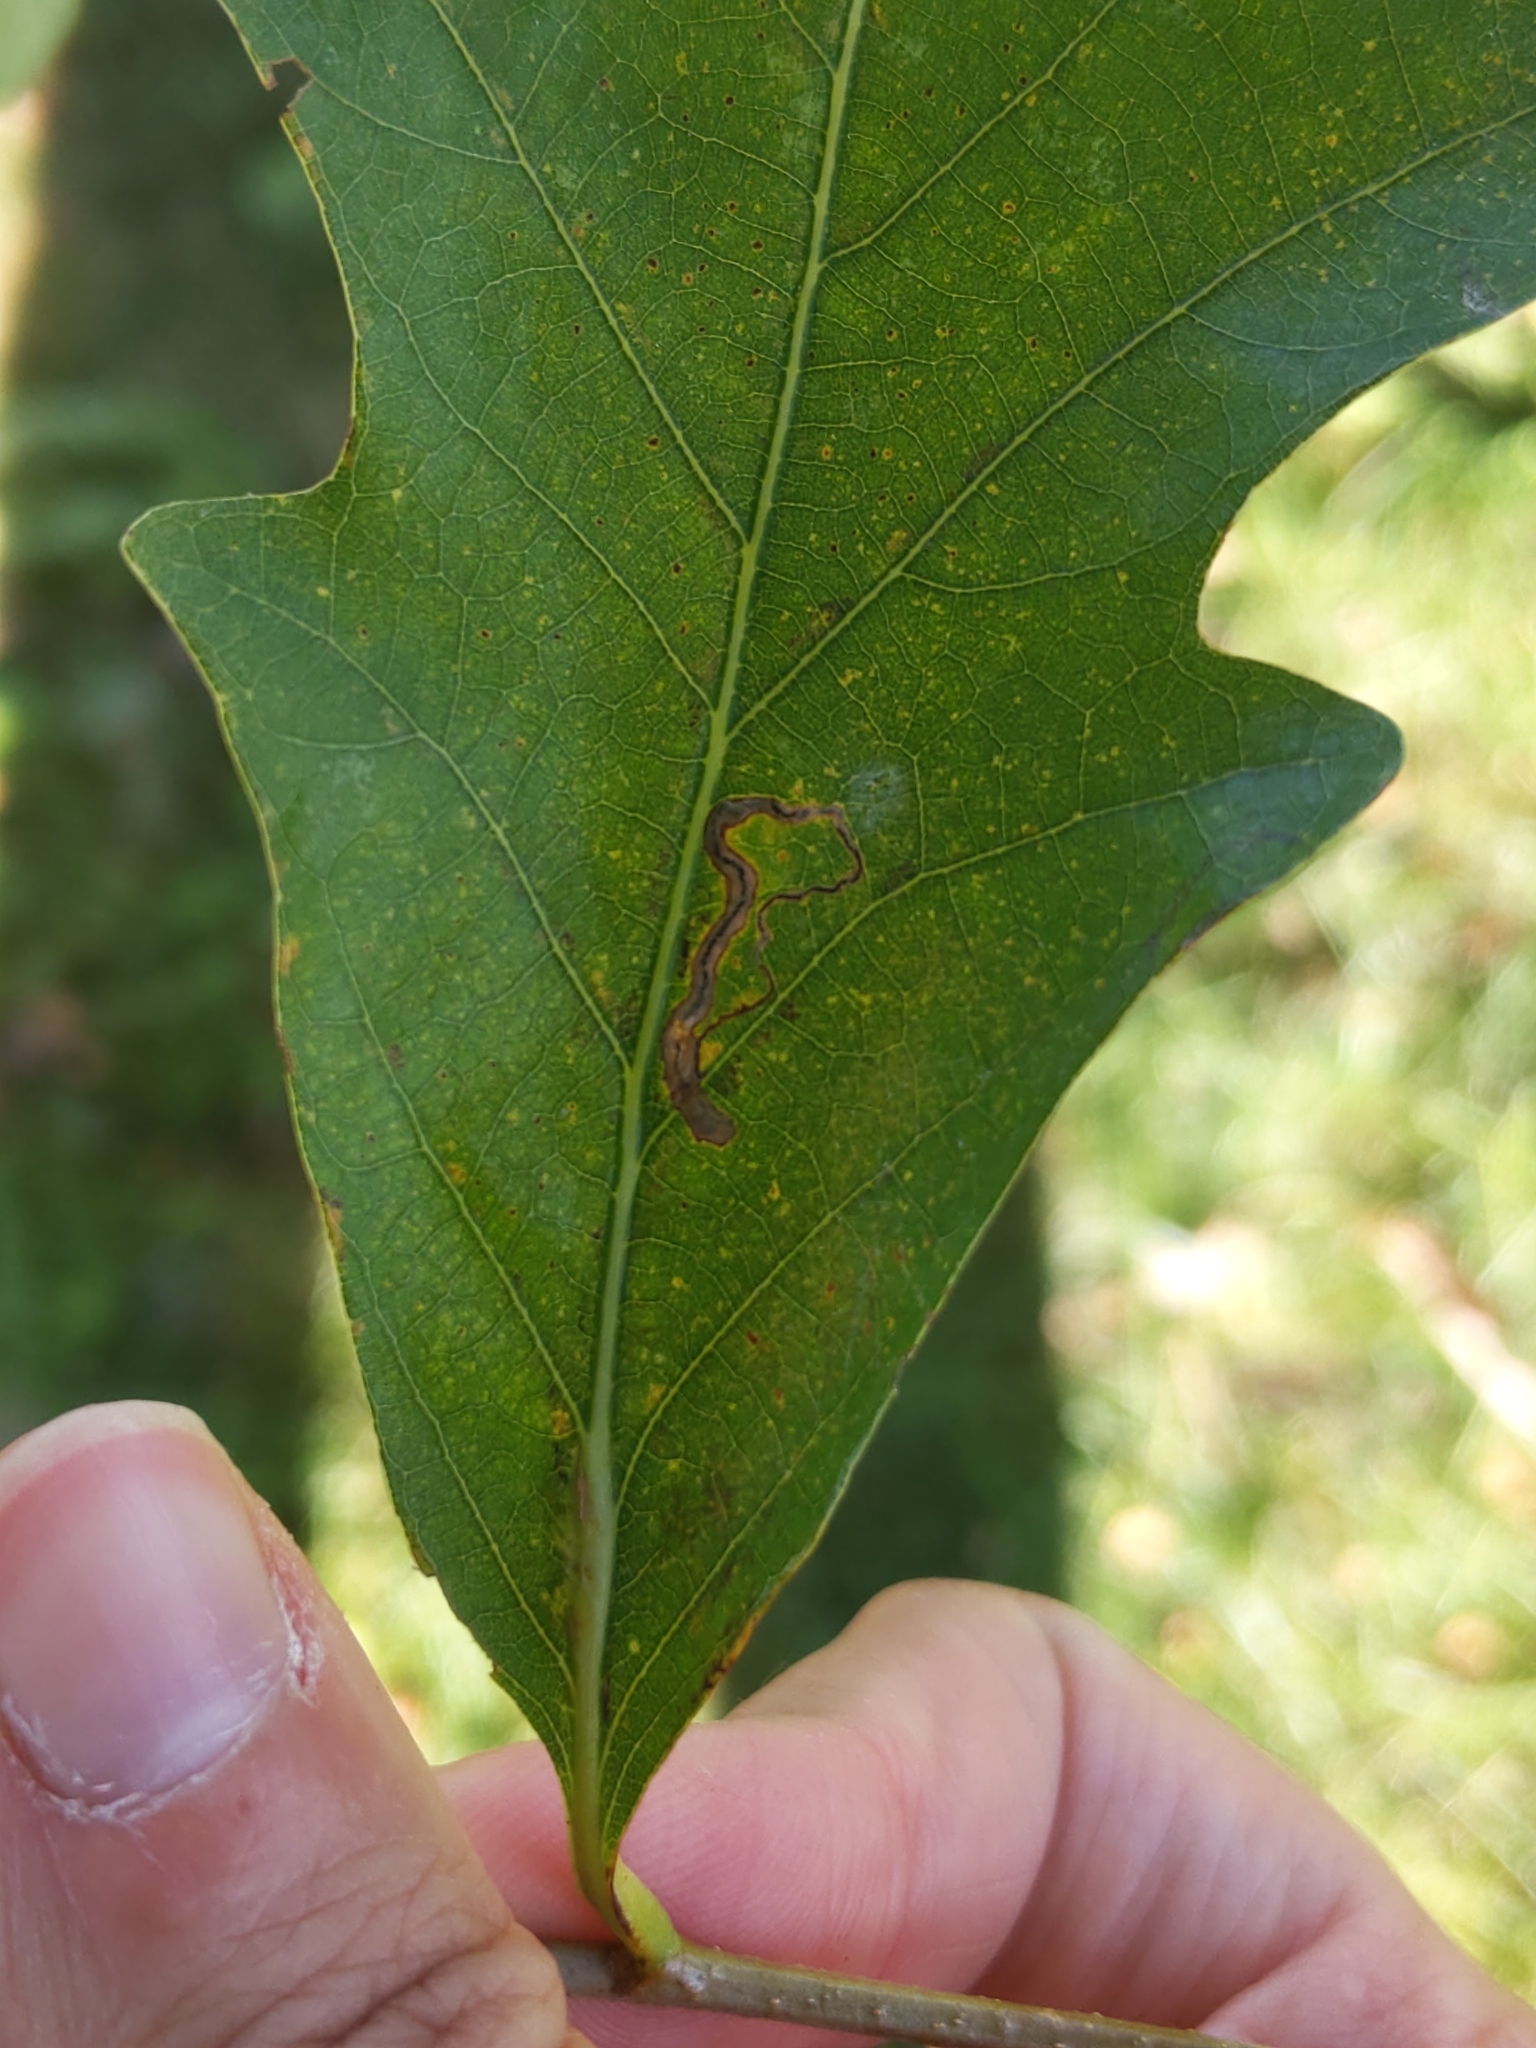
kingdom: Animalia
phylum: Arthropoda
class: Insecta
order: Lepidoptera
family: Nepticulidae
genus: Stigmella
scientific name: Stigmella
